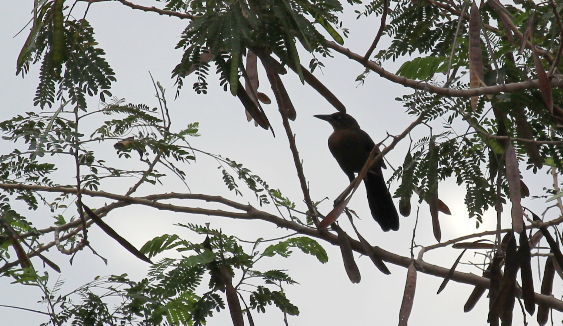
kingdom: Animalia
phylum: Chordata
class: Aves
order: Passeriformes
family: Icteridae
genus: Quiscalus
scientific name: Quiscalus mexicanus
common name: Great-tailed grackle
